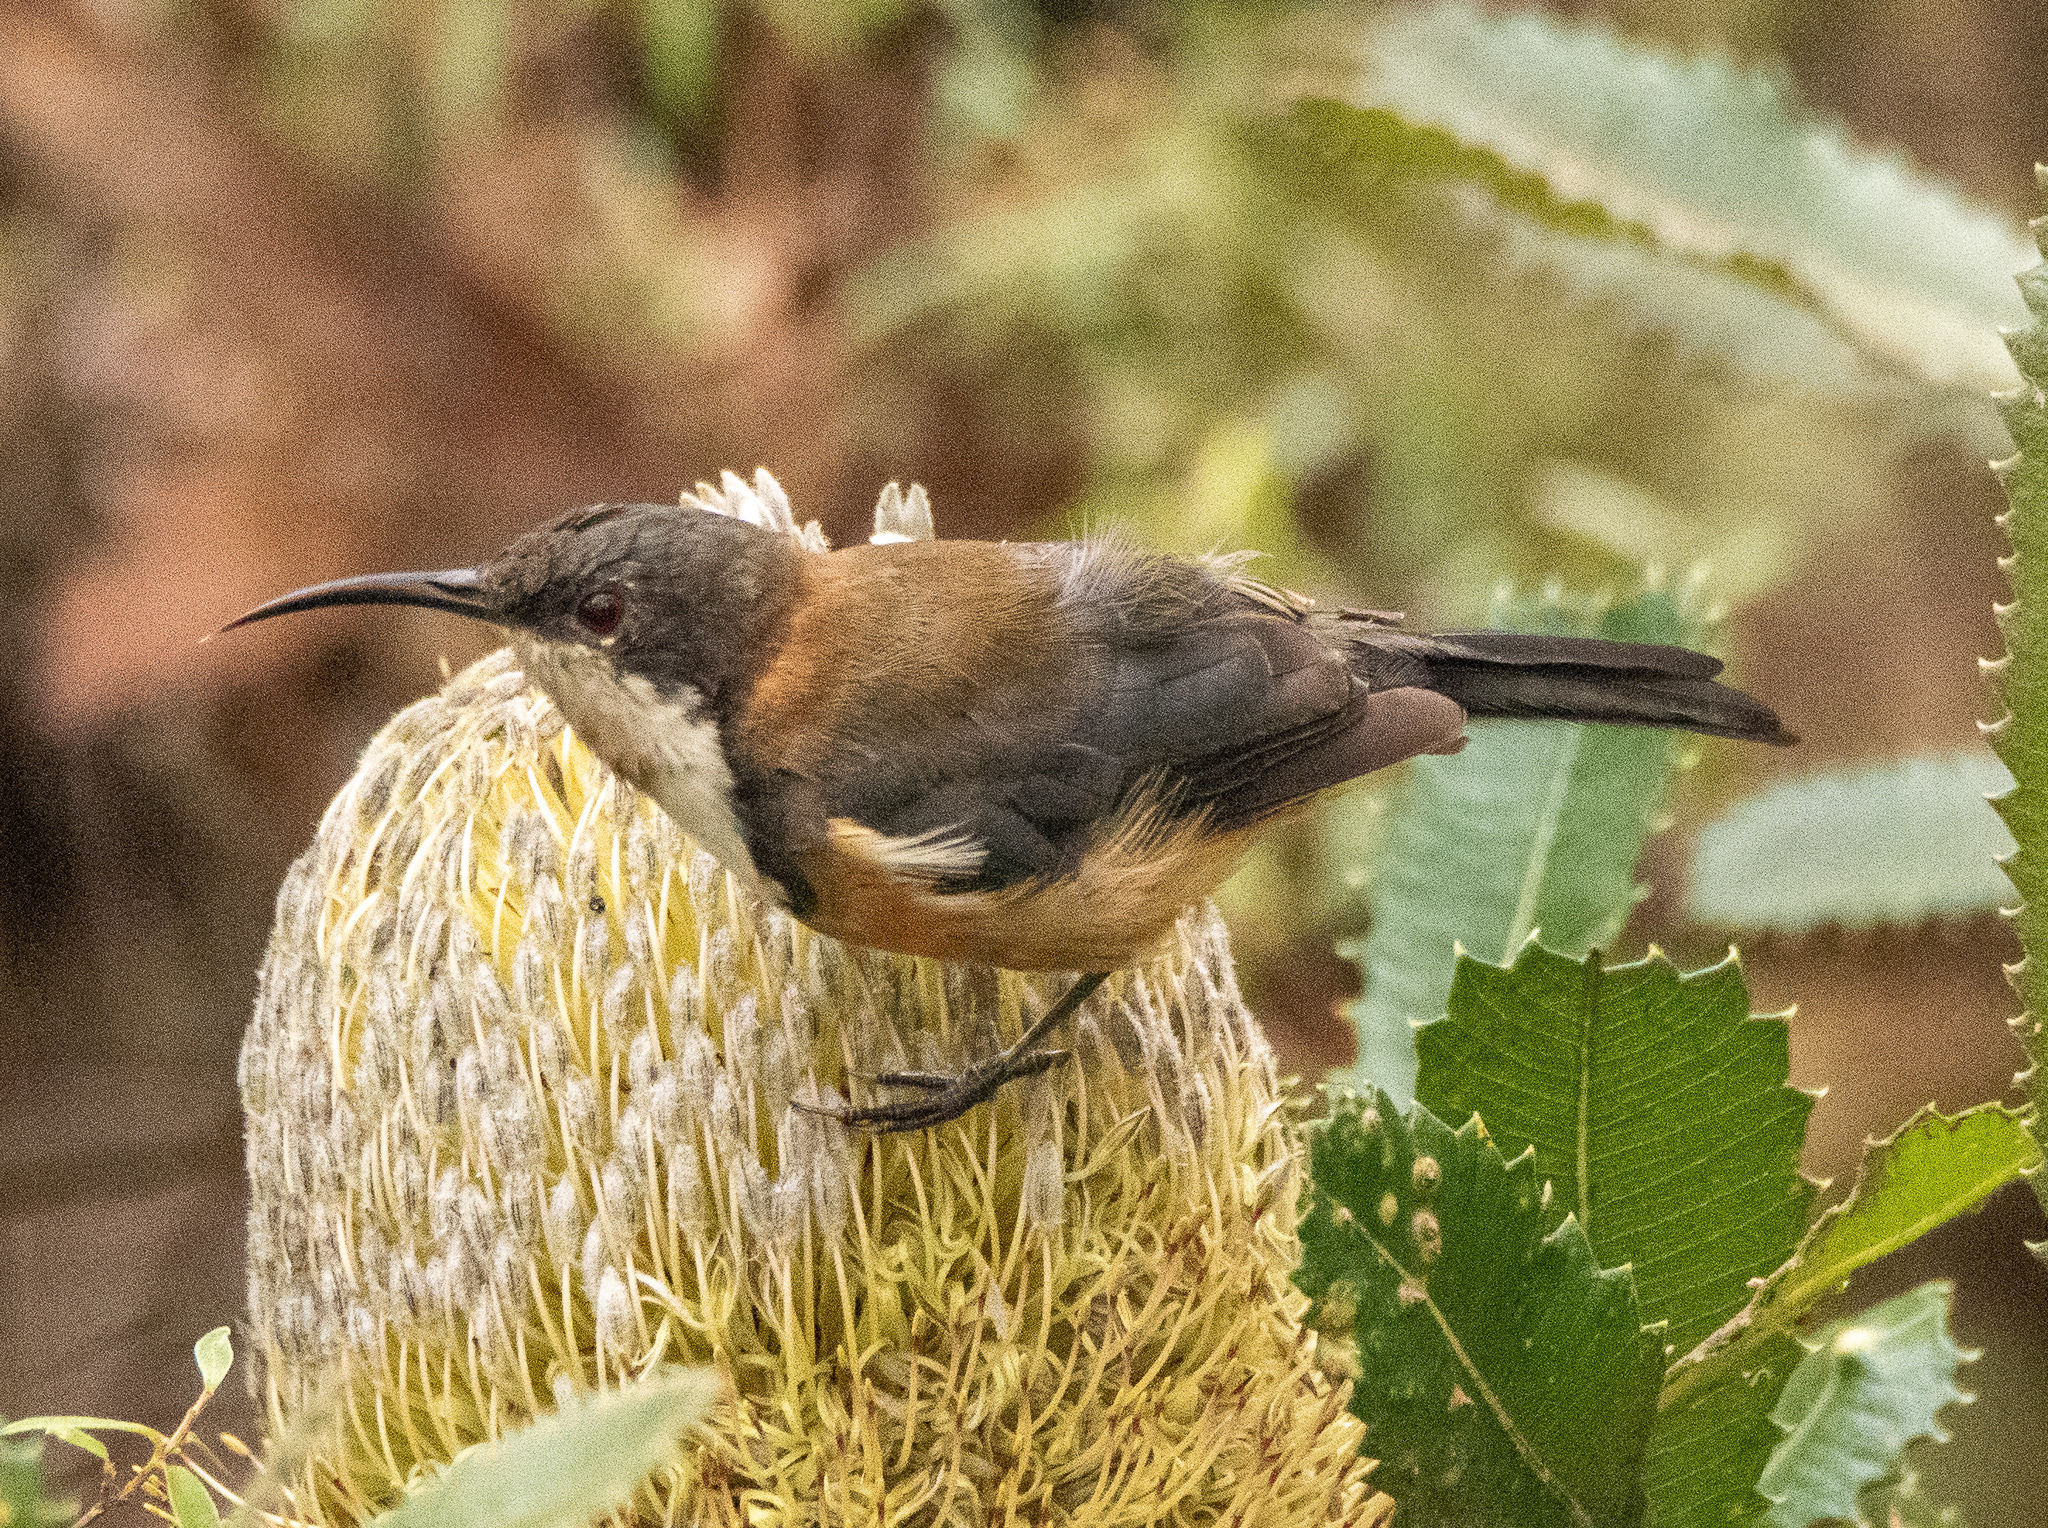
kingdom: Animalia
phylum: Chordata
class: Aves
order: Passeriformes
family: Meliphagidae
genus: Acanthorhynchus
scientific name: Acanthorhynchus tenuirostris
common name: Eastern spinebill
